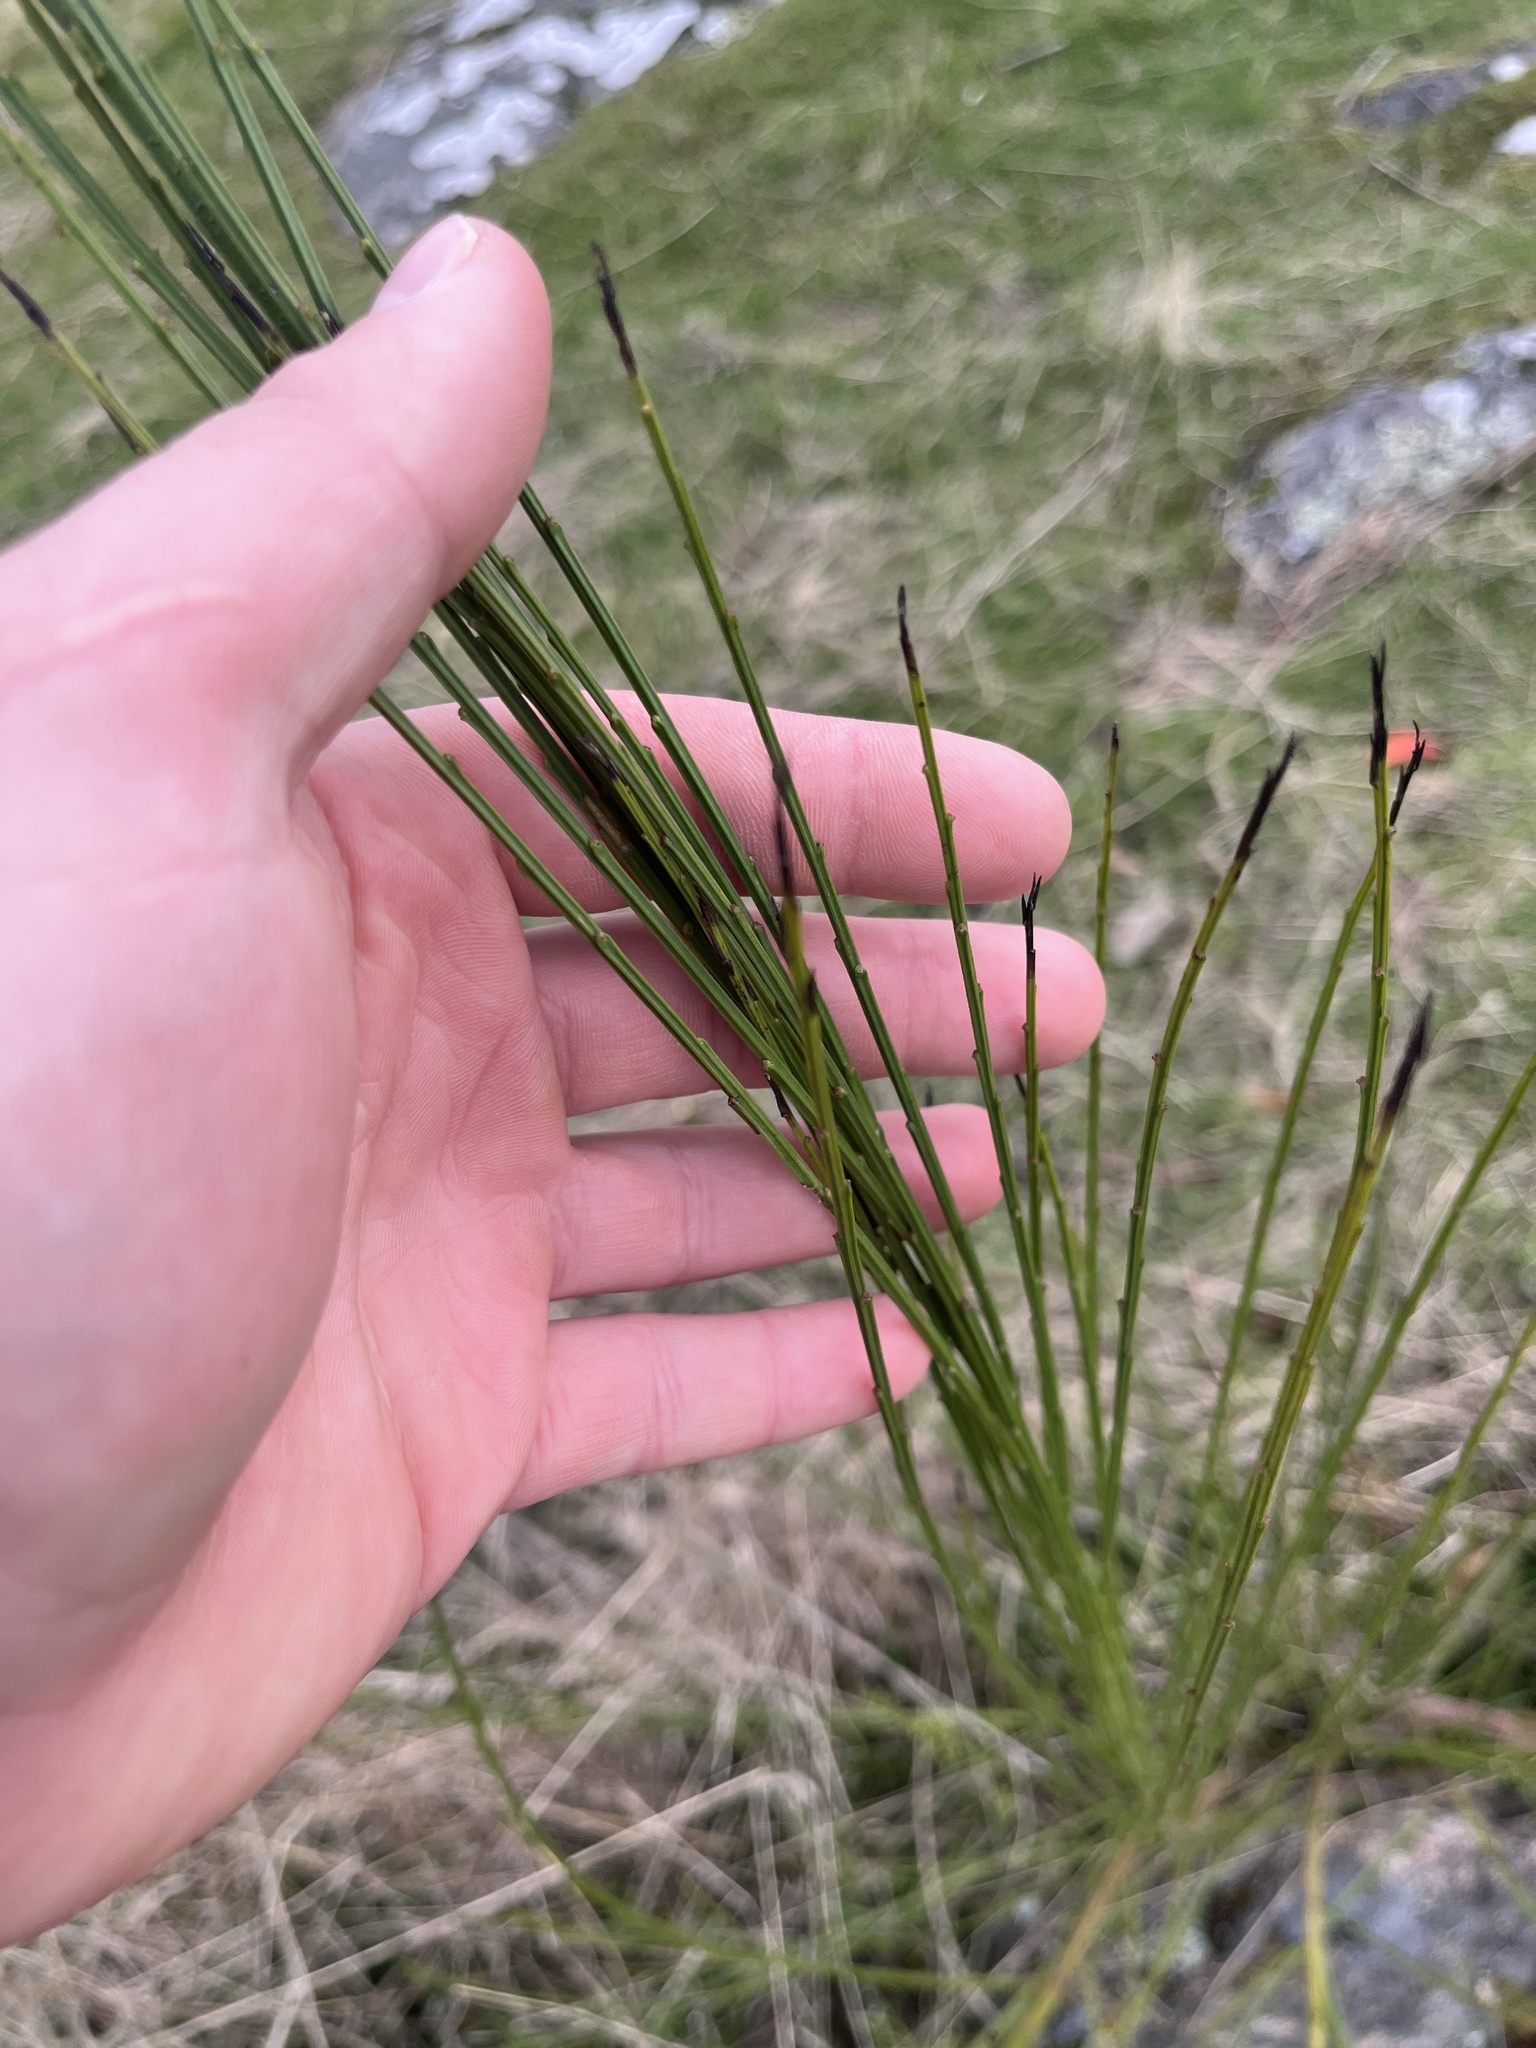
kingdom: Plantae
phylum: Tracheophyta
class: Magnoliopsida
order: Fabales
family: Fabaceae
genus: Cytisus
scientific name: Cytisus scoparius
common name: Scotch broom
